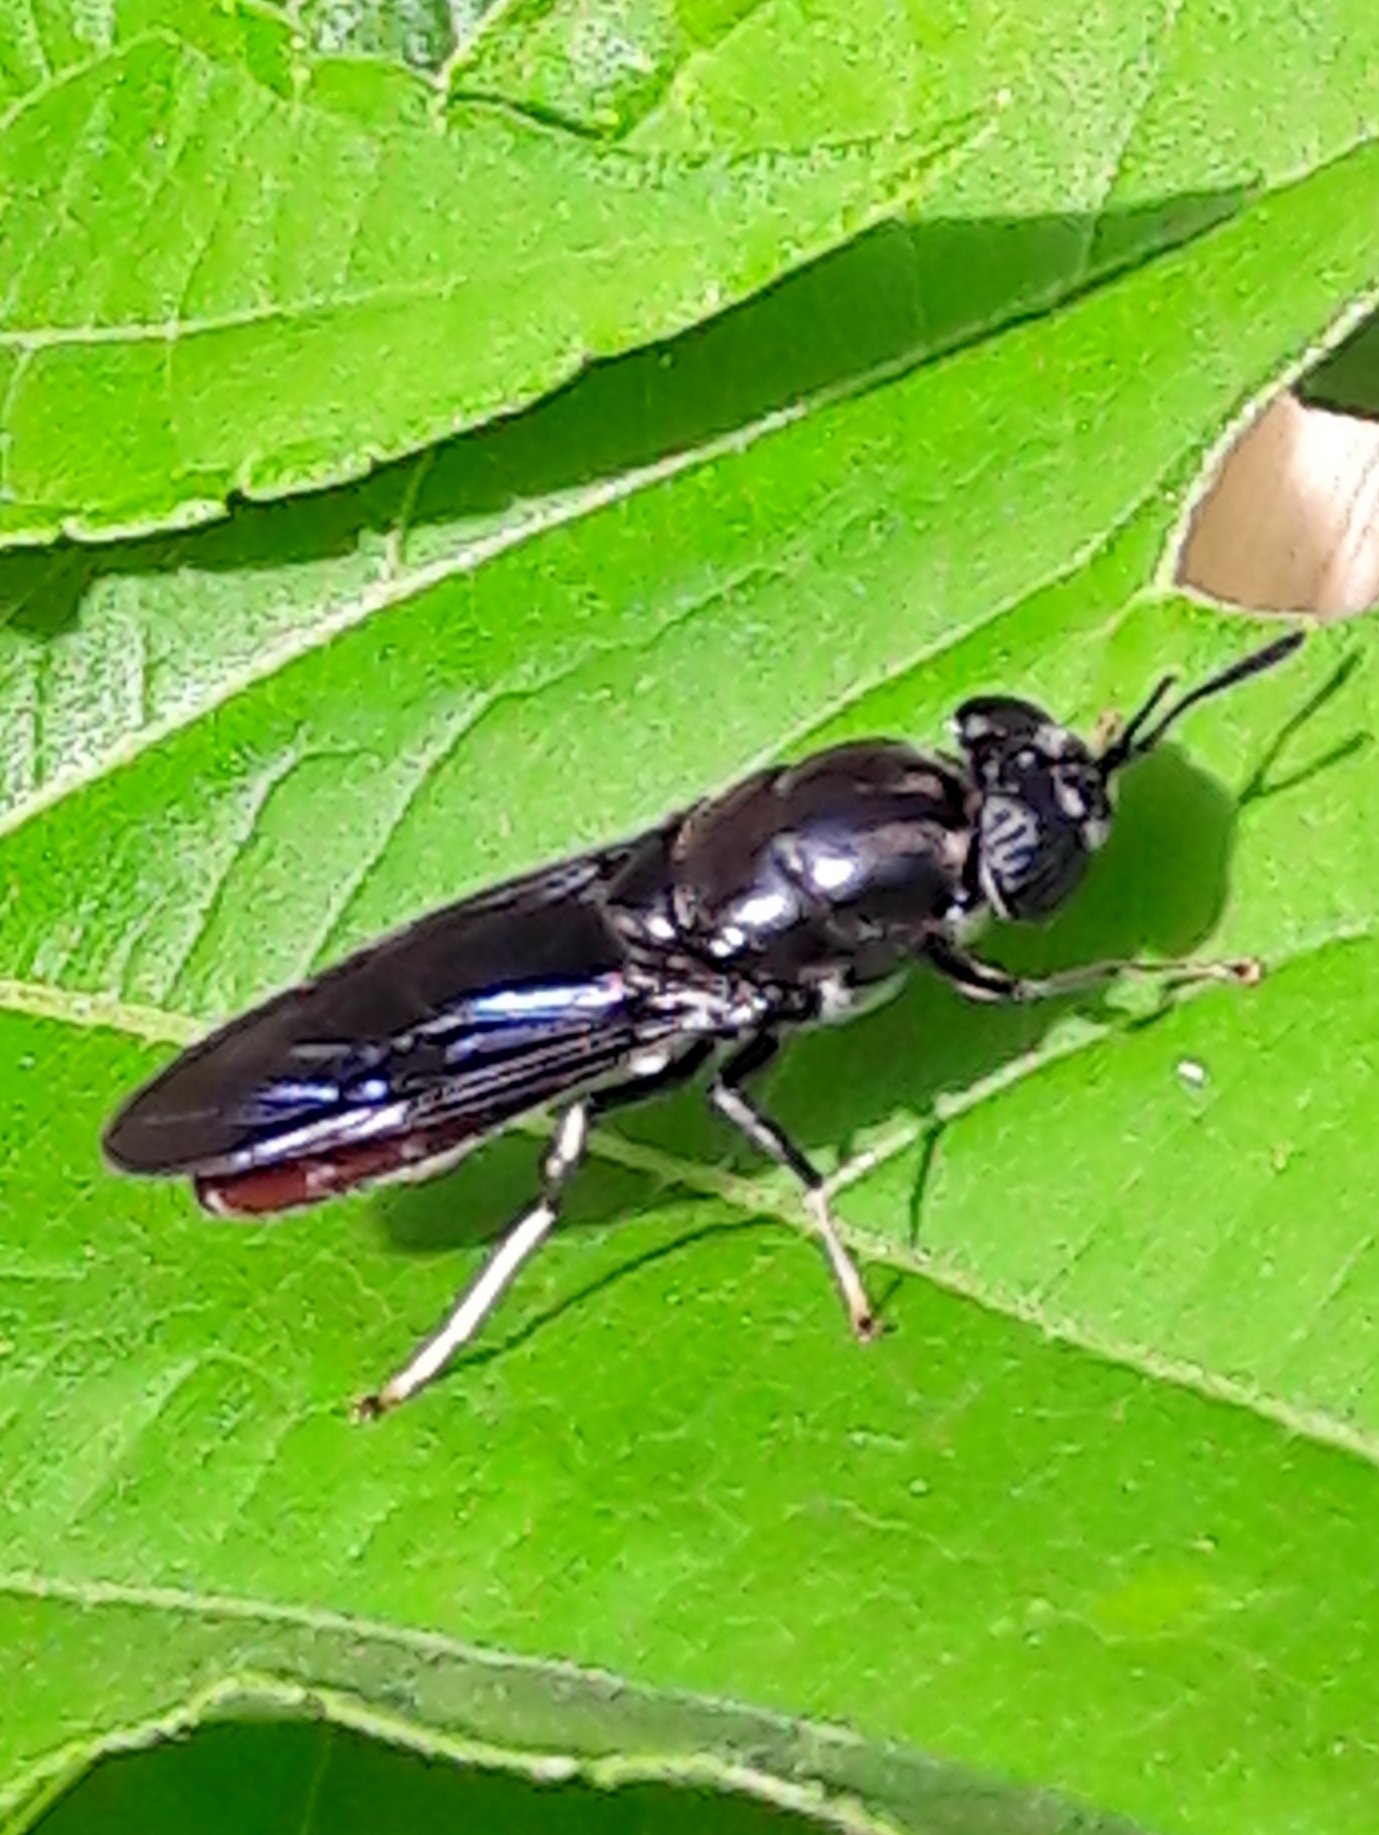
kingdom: Animalia
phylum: Arthropoda
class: Insecta
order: Diptera
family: Stratiomyidae
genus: Hermetia
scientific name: Hermetia illucens
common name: Black soldier fly
